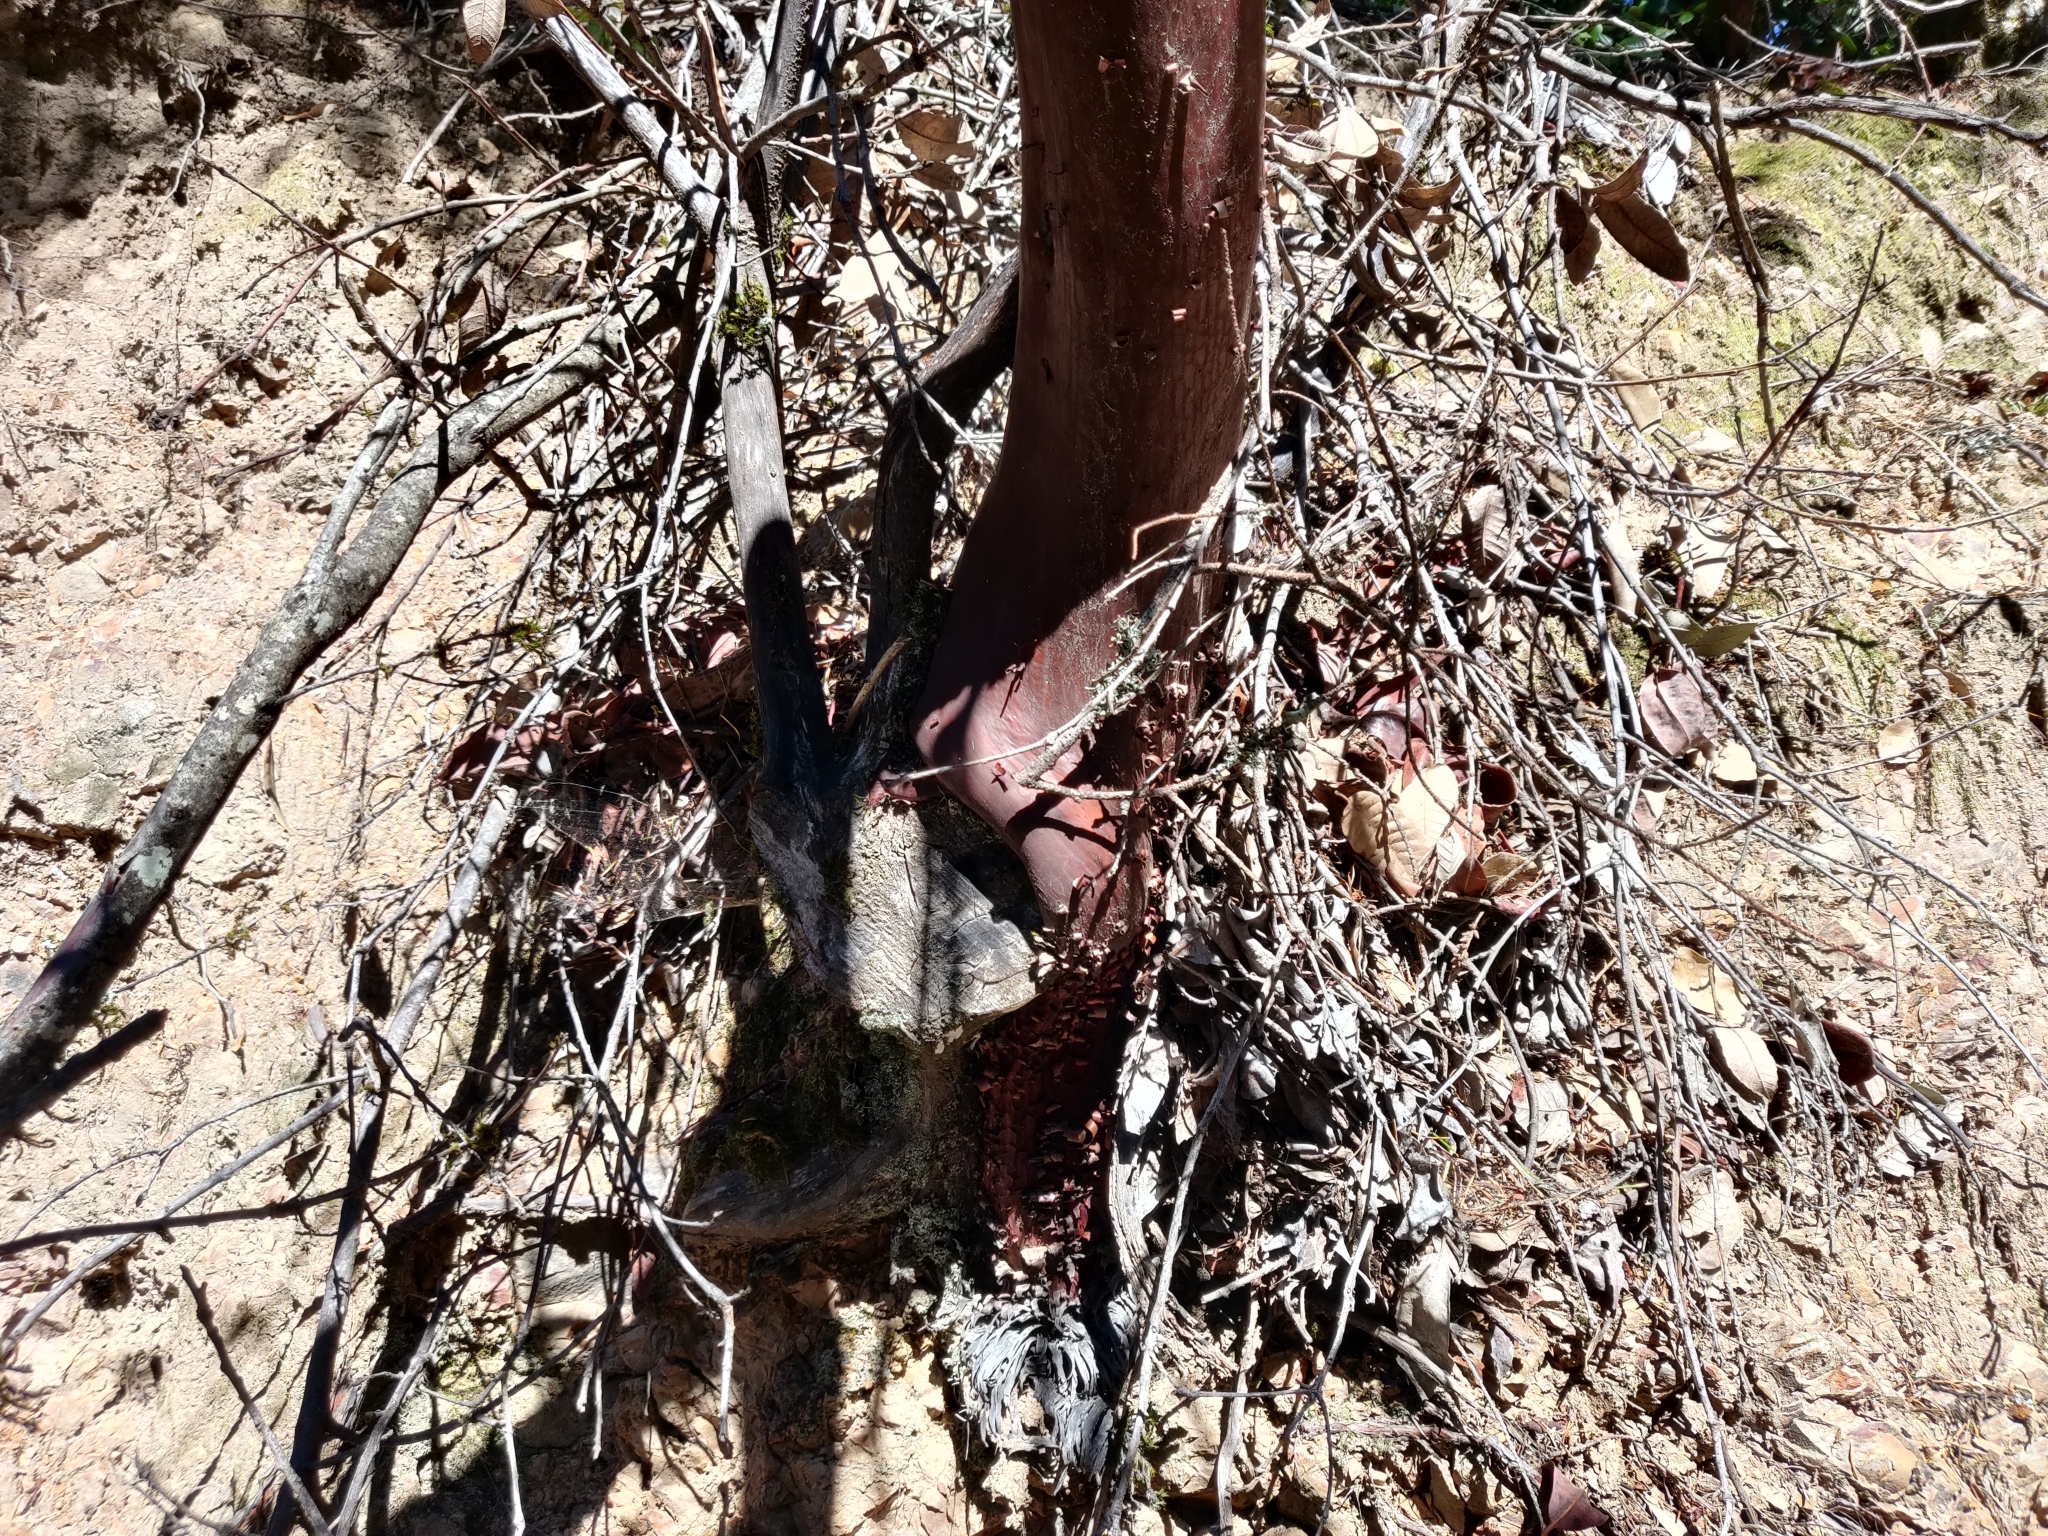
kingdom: Plantae
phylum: Tracheophyta
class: Magnoliopsida
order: Ericales
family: Ericaceae
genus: Arctostaphylos
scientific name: Arctostaphylos regismontana
